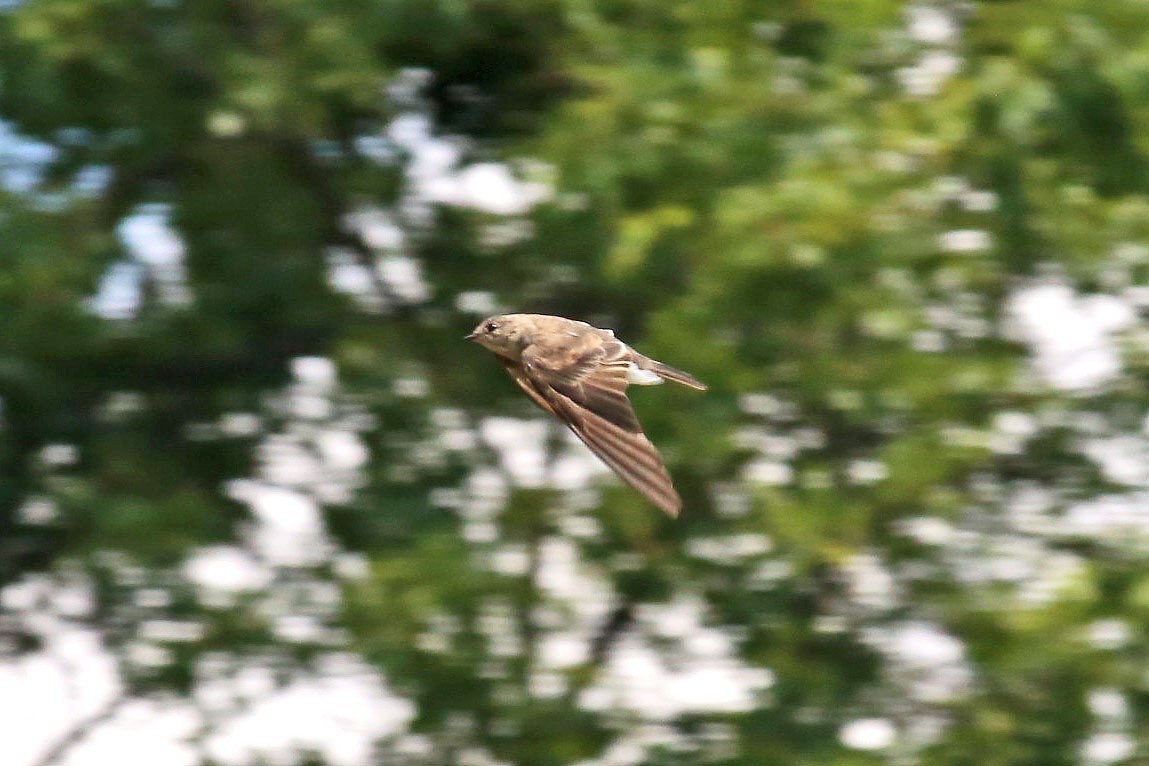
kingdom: Animalia
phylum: Chordata
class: Aves
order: Passeriformes
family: Hirundinidae
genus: Stelgidopteryx
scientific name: Stelgidopteryx serripennis
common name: Northern rough-winged swallow
